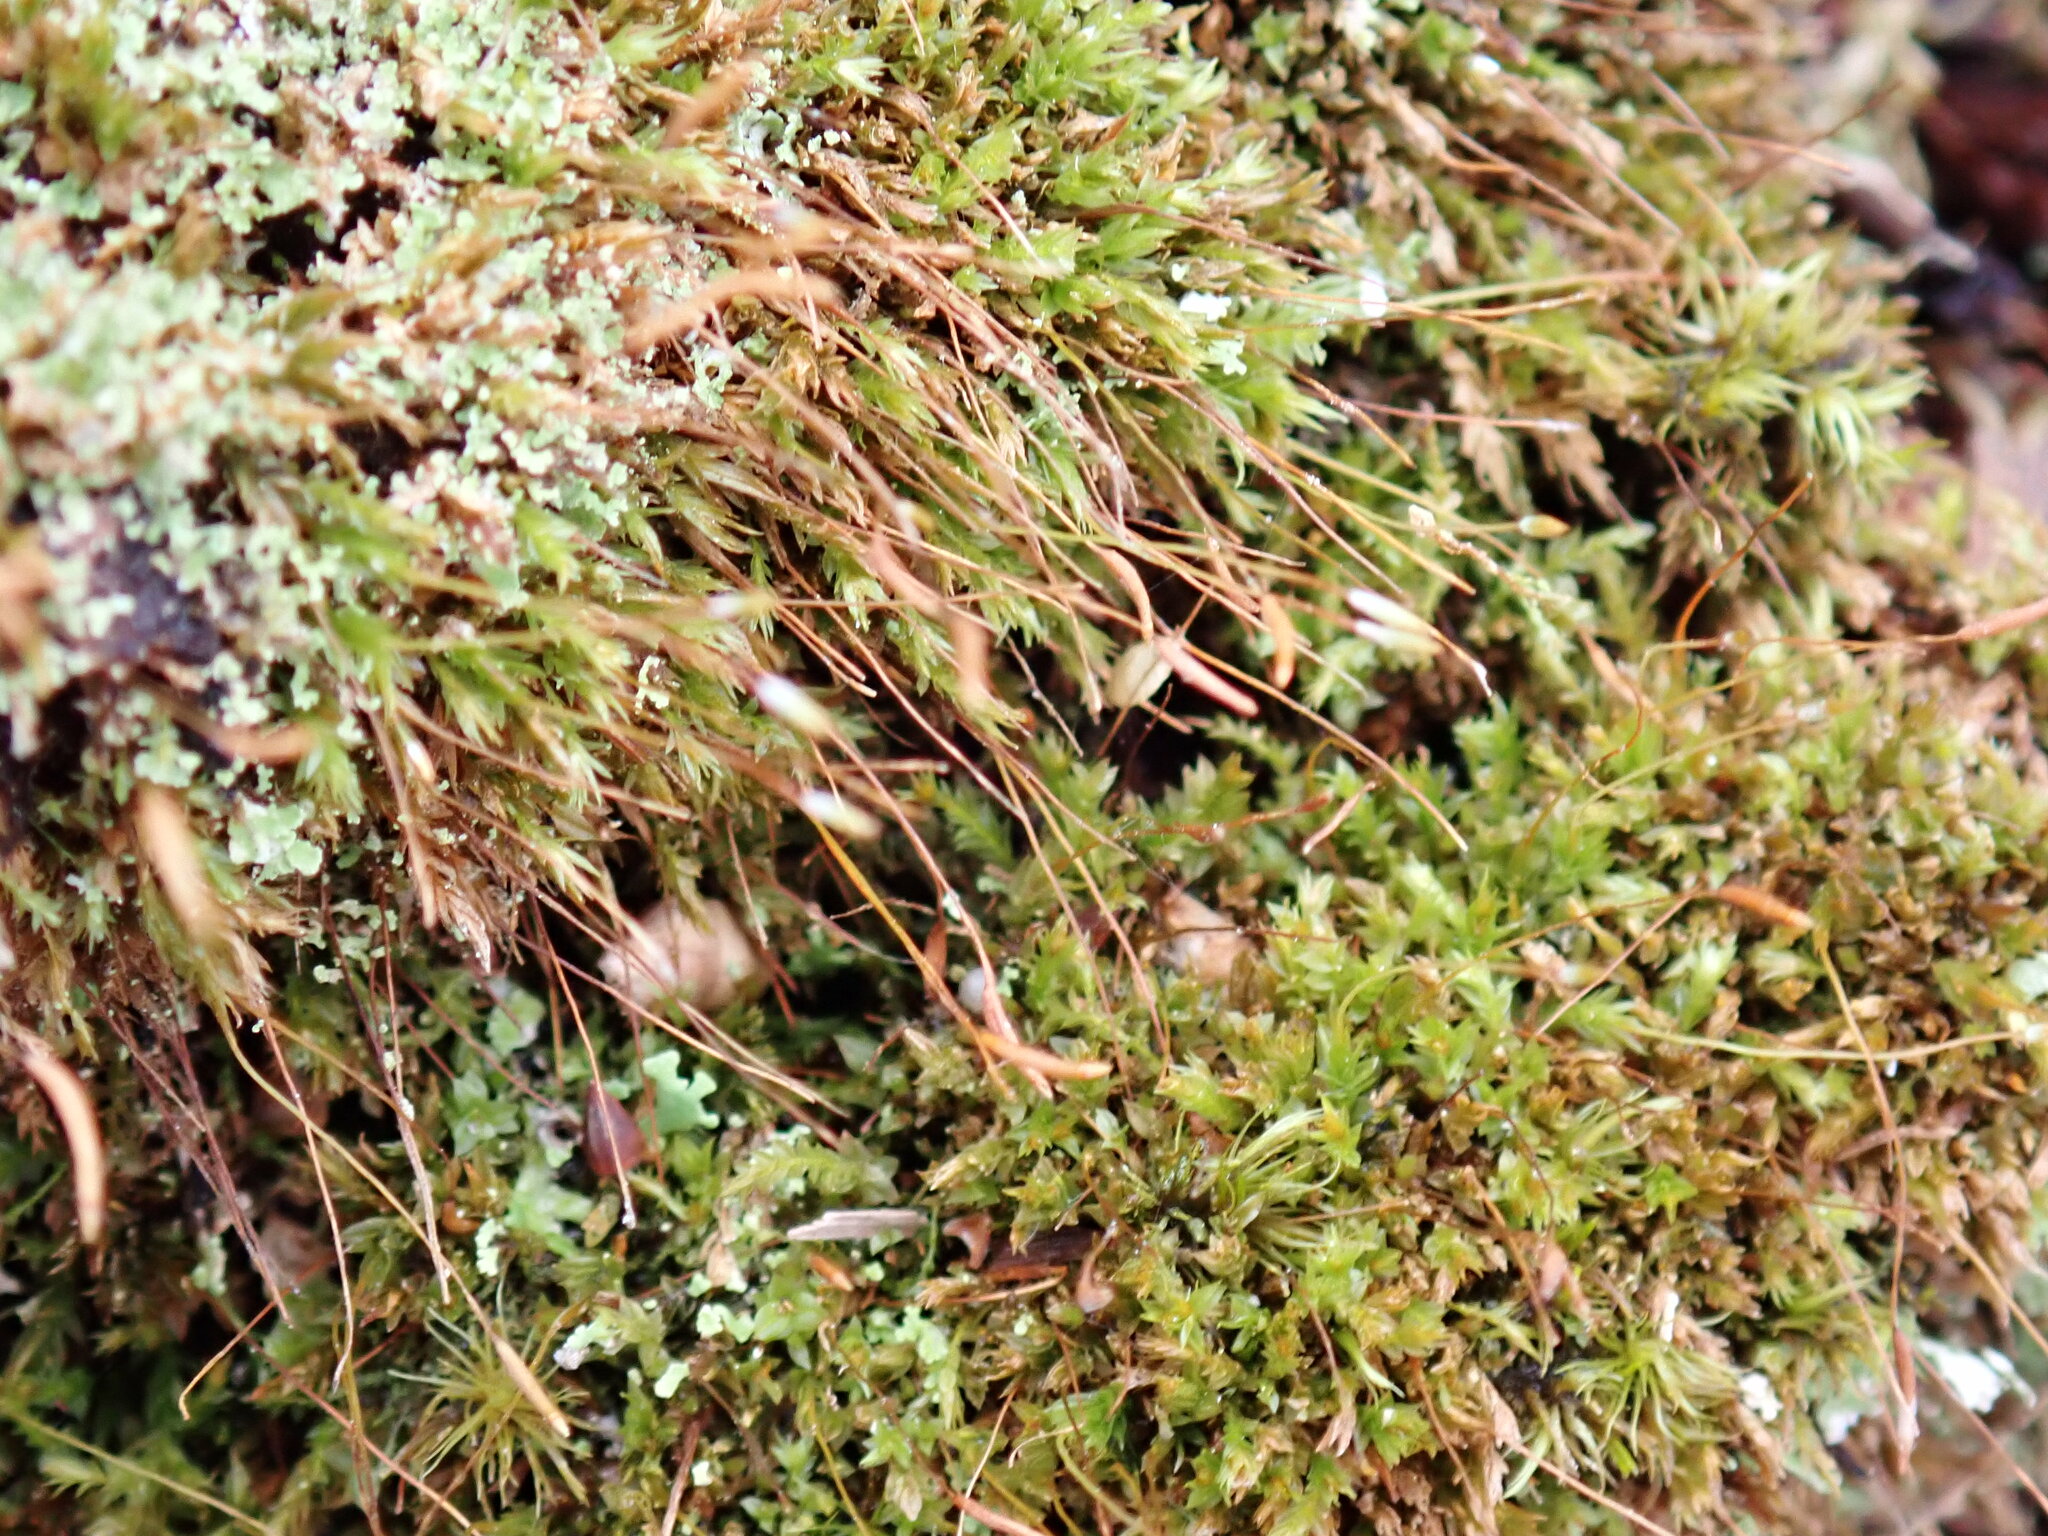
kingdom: Plantae
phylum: Bryophyta
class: Polytrichopsida
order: Tetraphidales
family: Tetraphidaceae
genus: Tetraphis
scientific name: Tetraphis pellucida
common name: Common four-toothed moss
